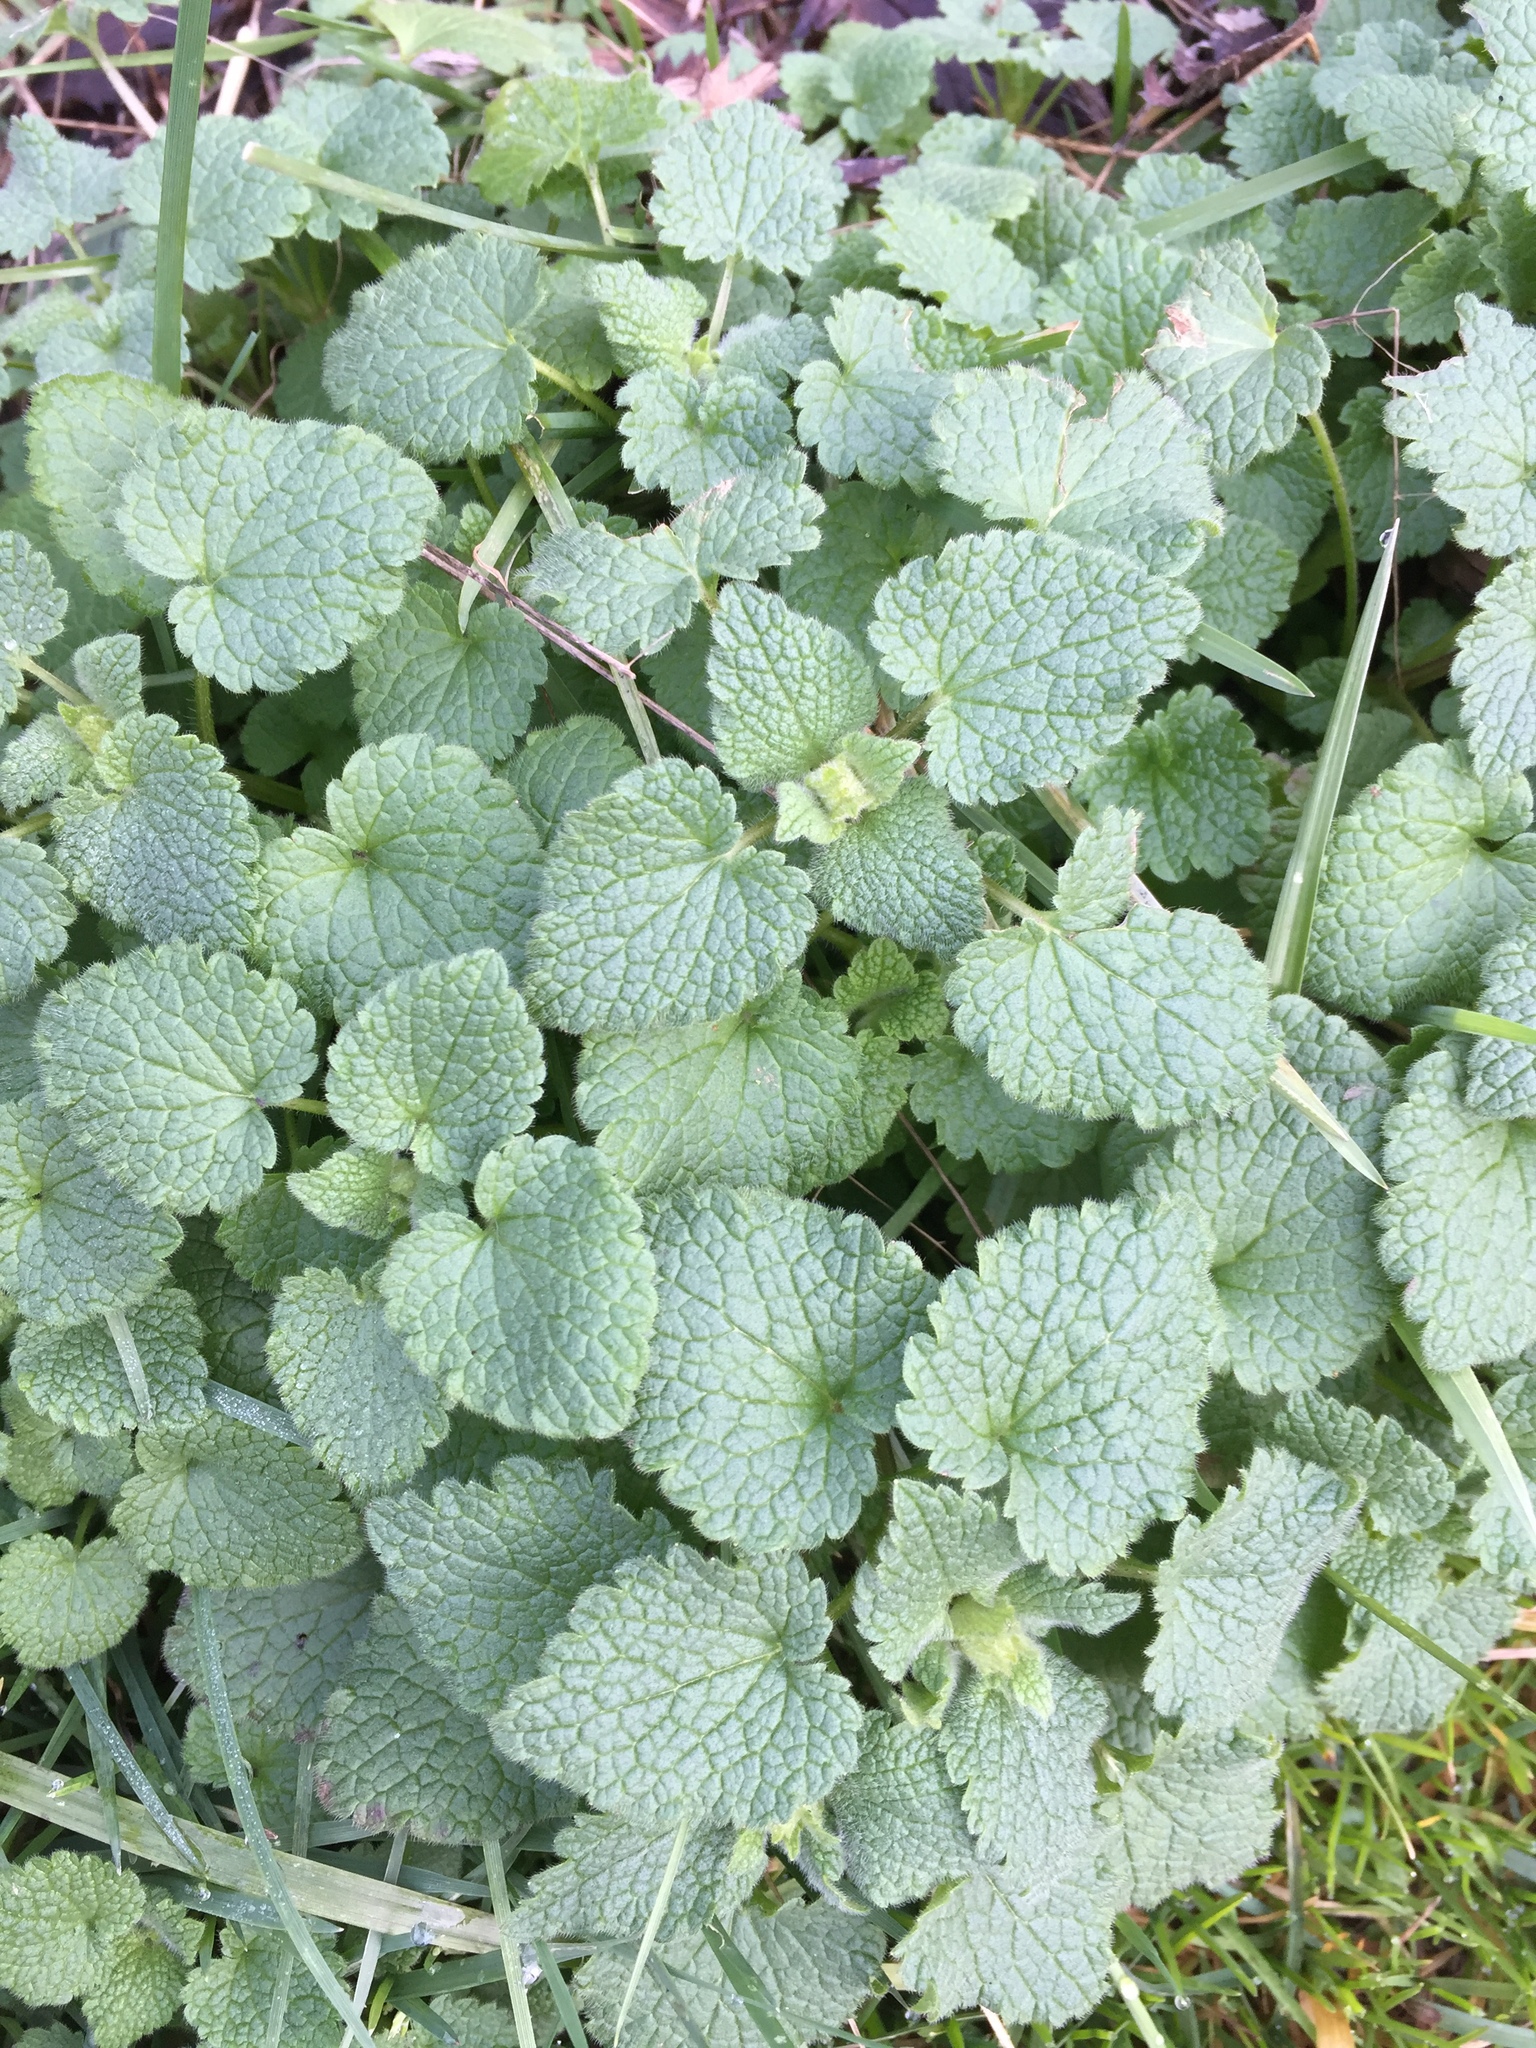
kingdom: Plantae
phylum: Tracheophyta
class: Magnoliopsida
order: Lamiales
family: Lamiaceae
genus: Lamium
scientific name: Lamium purpureum
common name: Red dead-nettle
